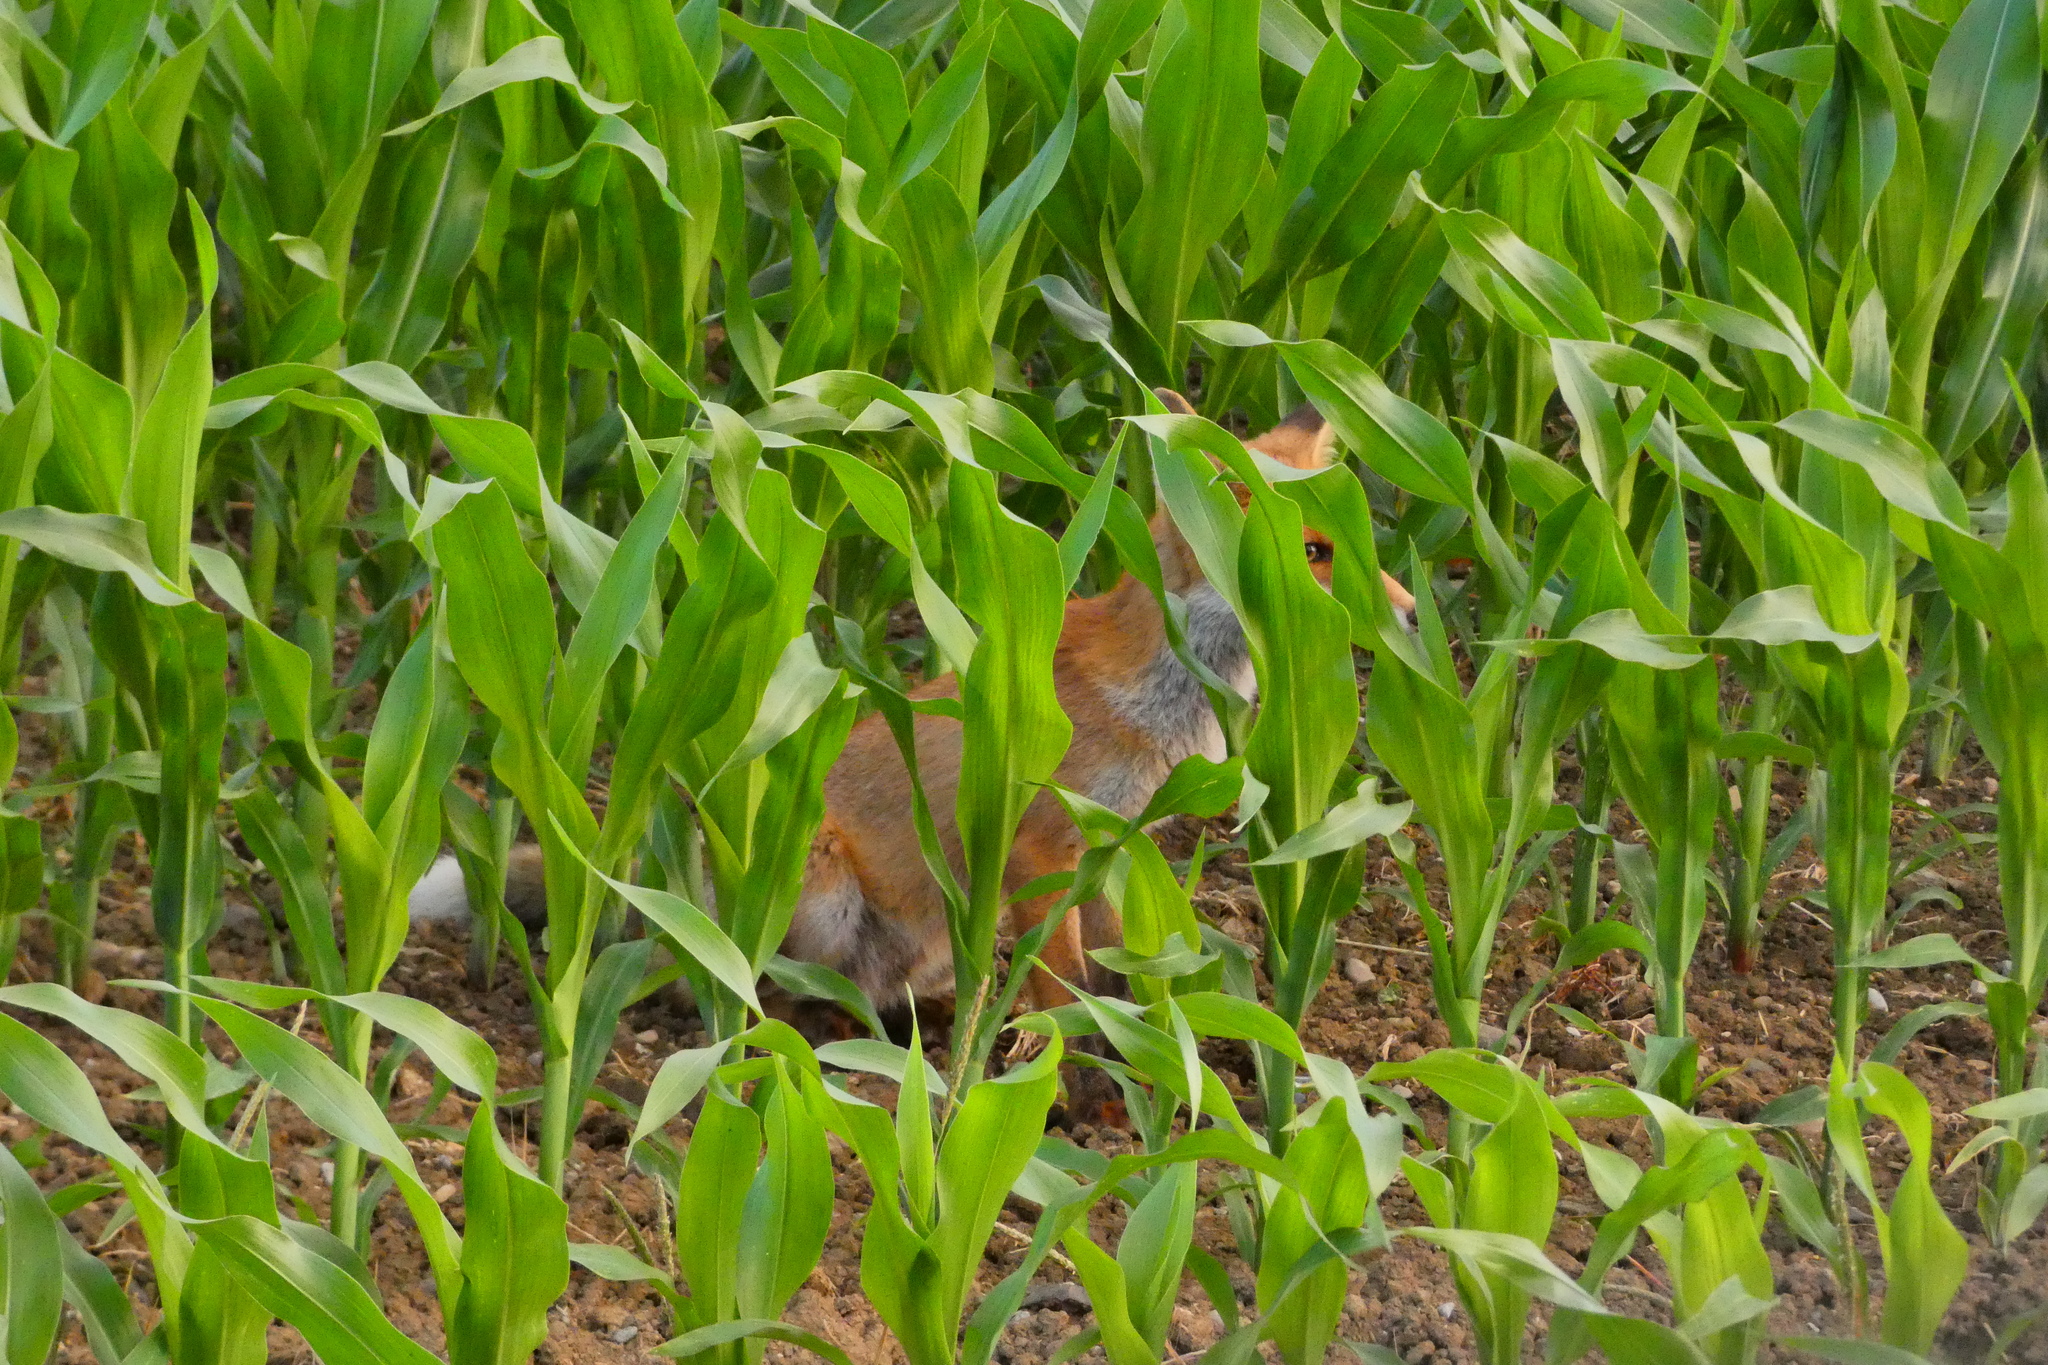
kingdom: Animalia
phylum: Chordata
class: Mammalia
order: Carnivora
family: Canidae
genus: Vulpes
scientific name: Vulpes vulpes
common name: Red fox
